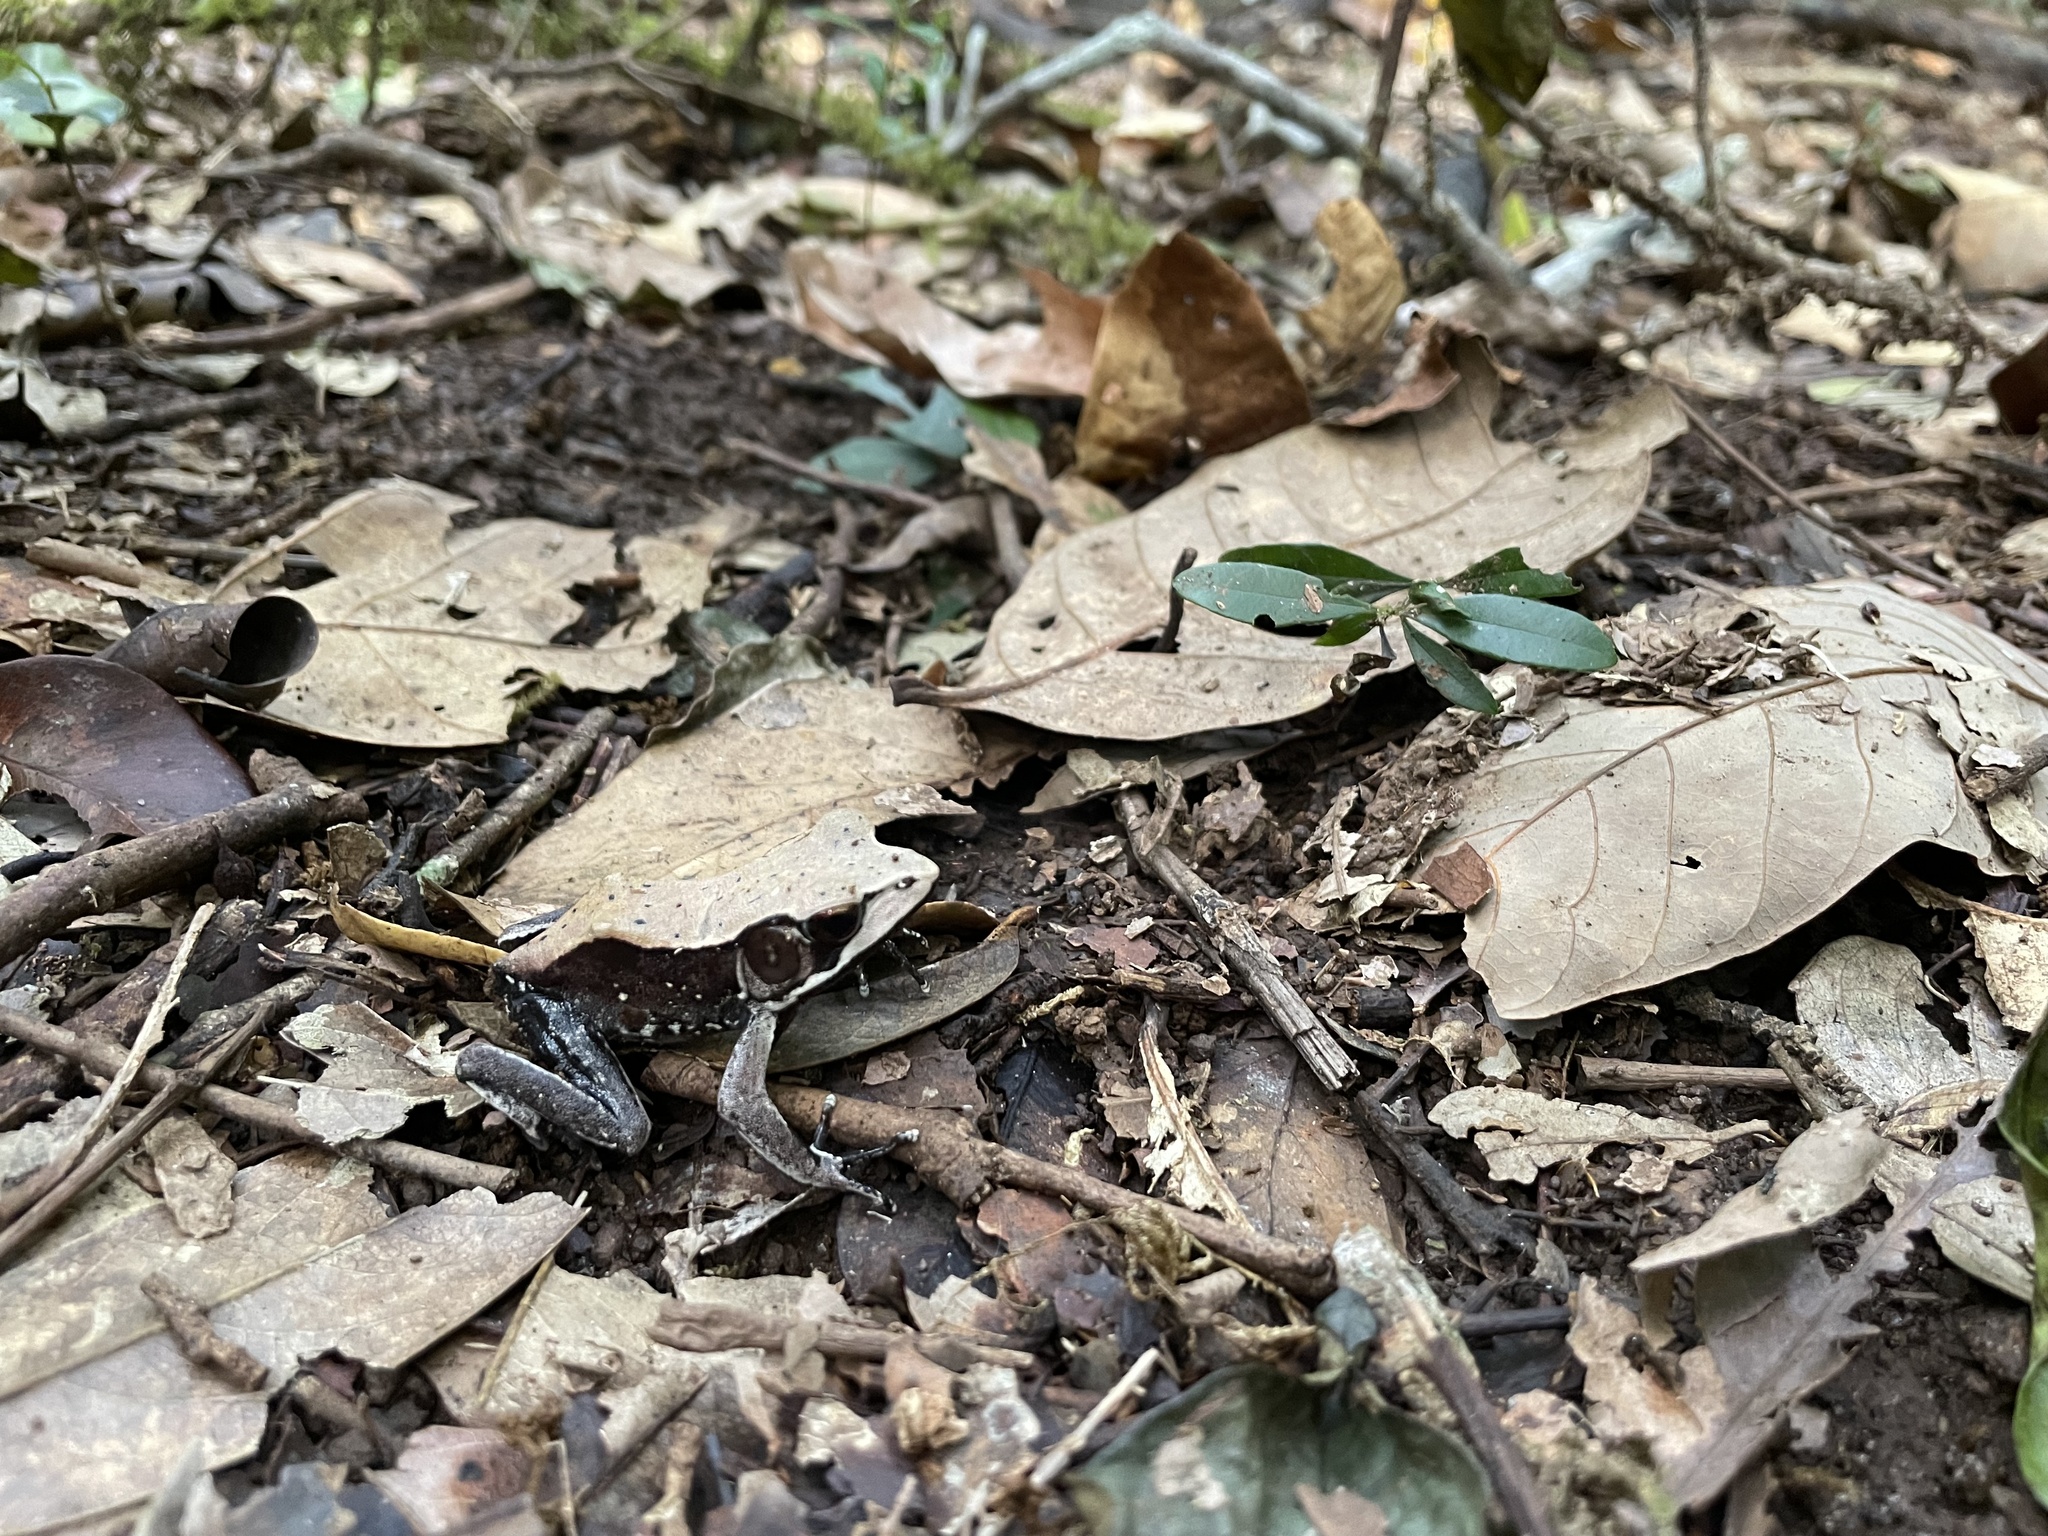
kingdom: Animalia
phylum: Chordata
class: Amphibia
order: Anura
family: Ranidae
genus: Clinotarsus
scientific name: Clinotarsus curtipes
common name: Bicoloured frog
